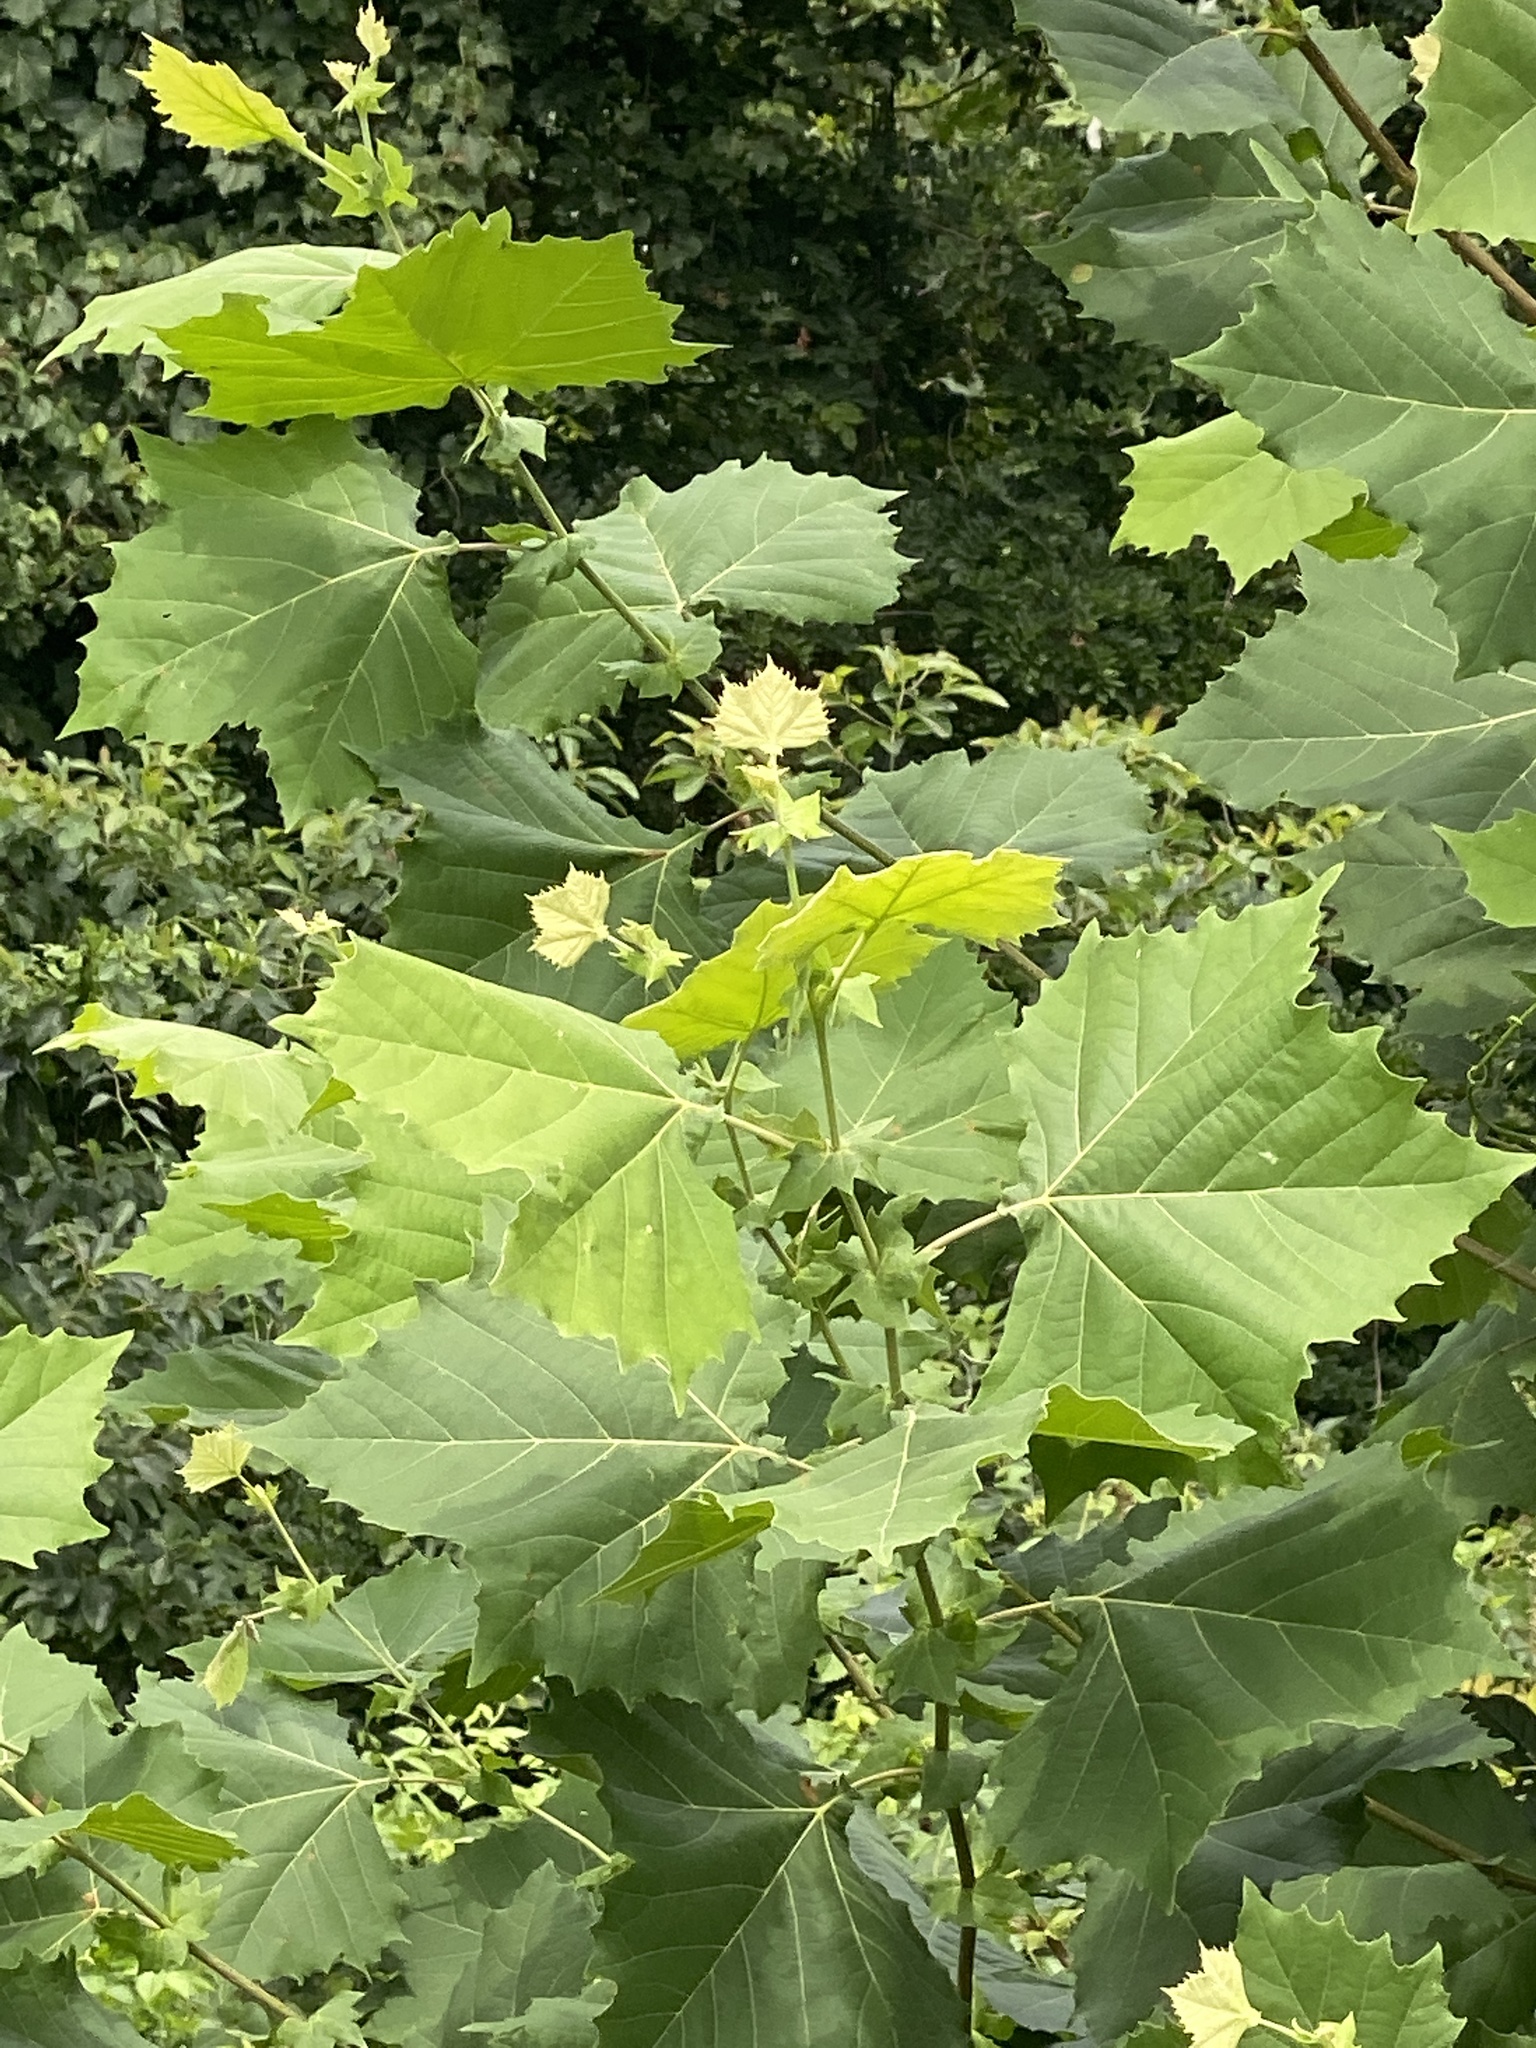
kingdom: Plantae
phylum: Tracheophyta
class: Magnoliopsida
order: Proteales
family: Platanaceae
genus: Platanus
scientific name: Platanus occidentalis
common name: American sycamore
